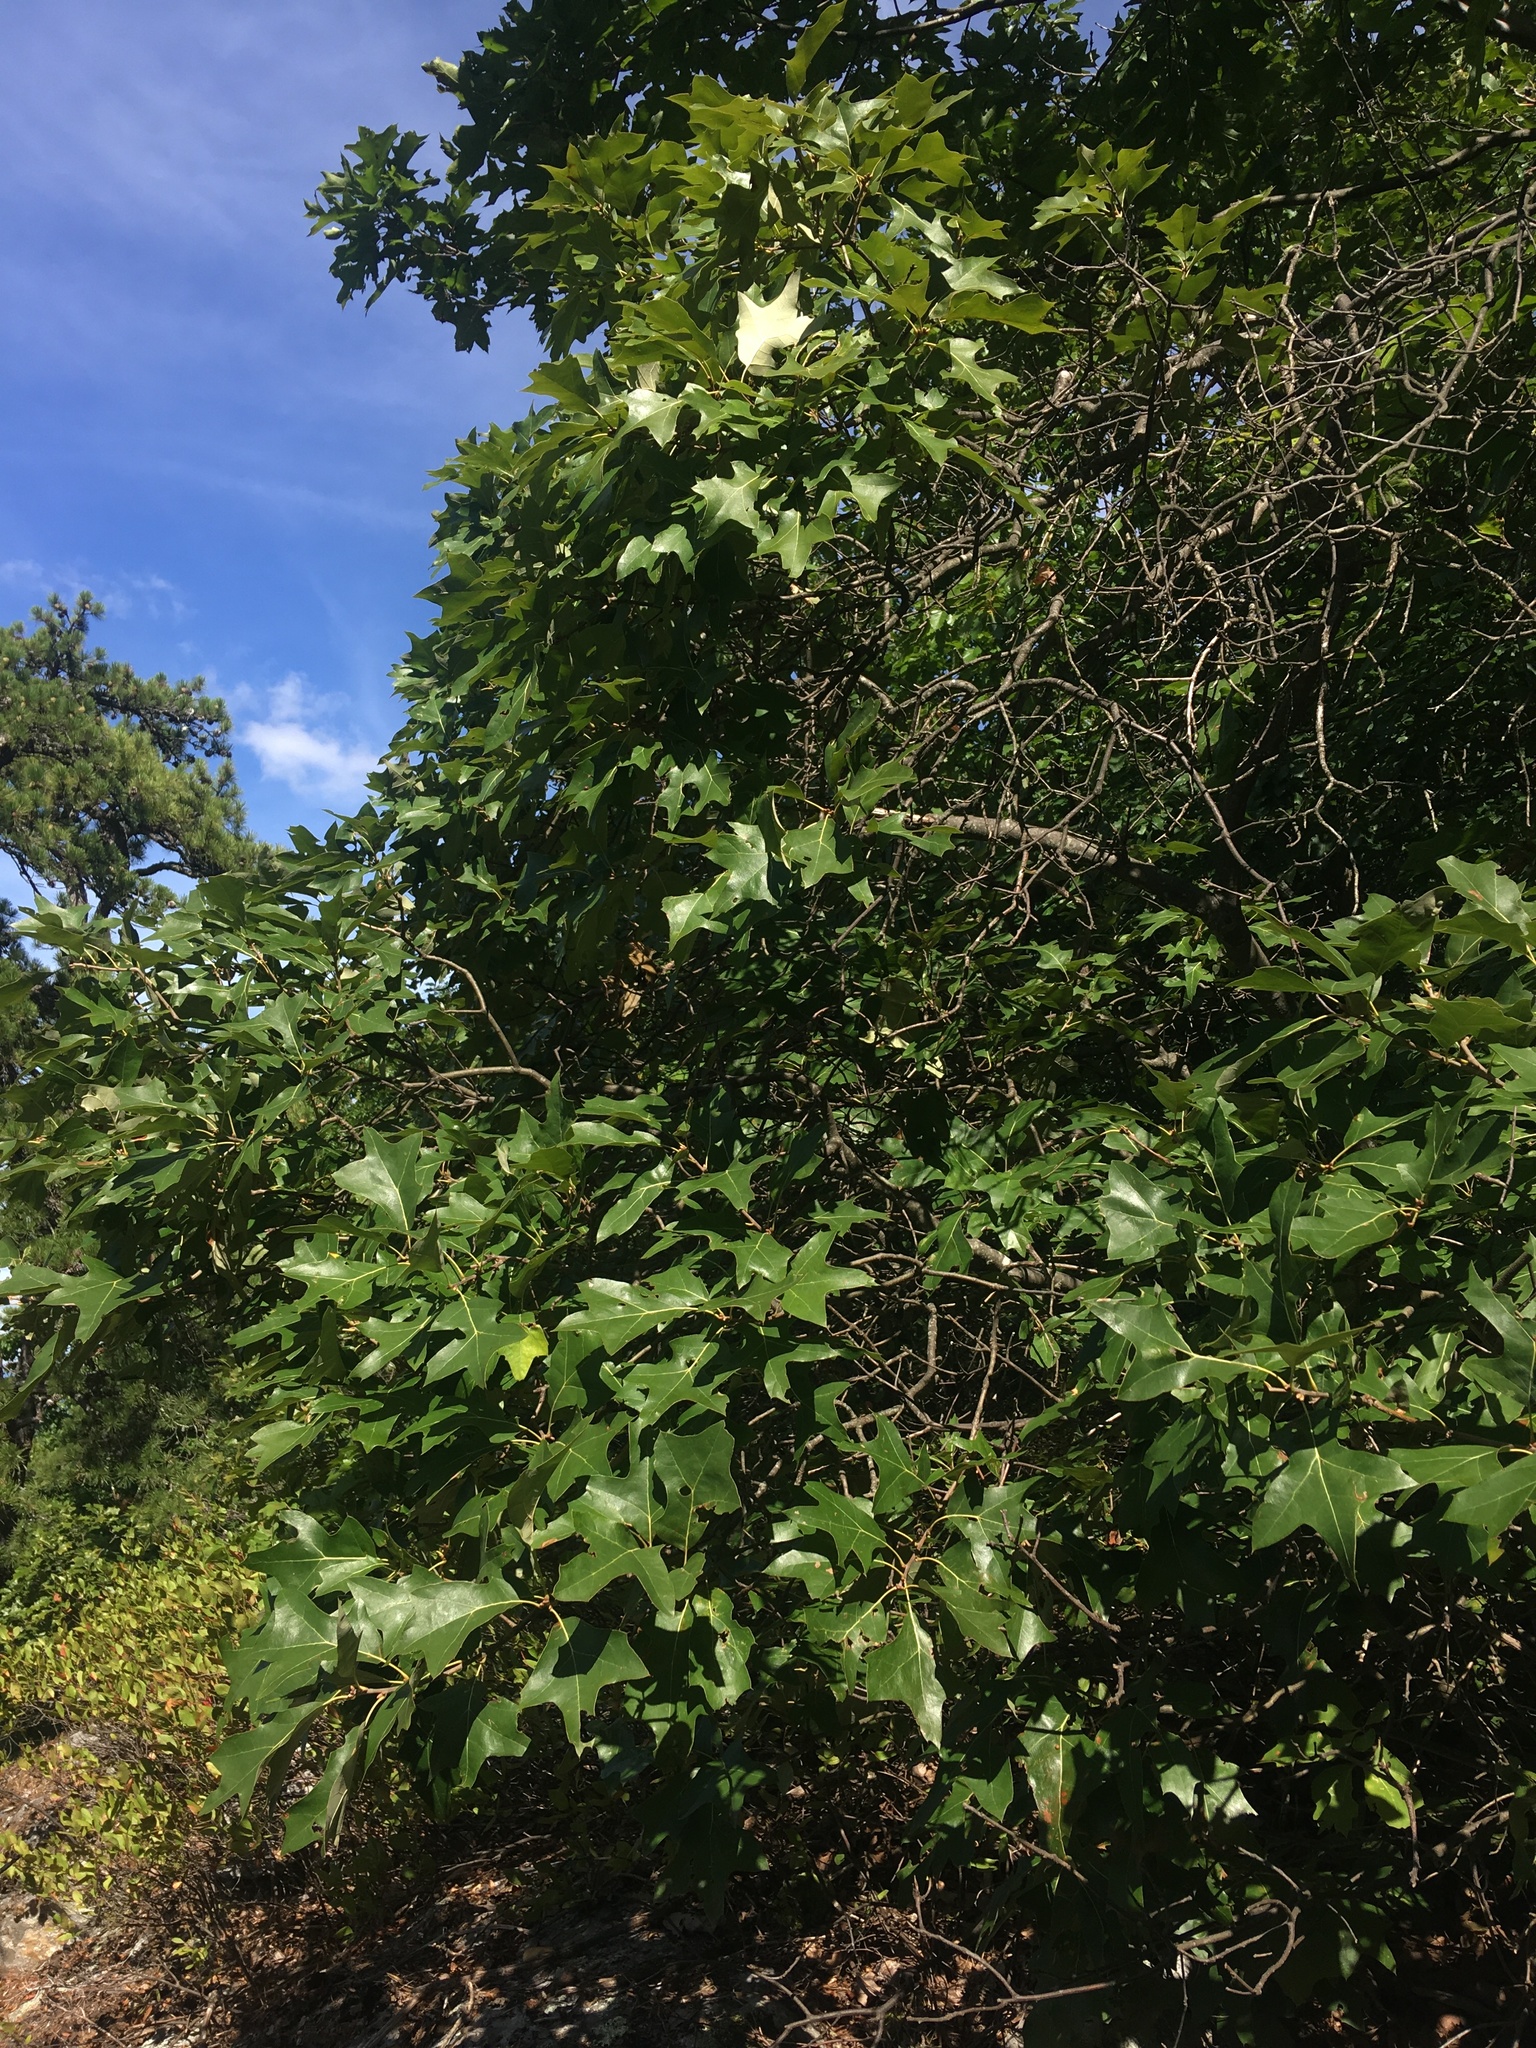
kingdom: Plantae
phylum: Tracheophyta
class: Magnoliopsida
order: Fagales
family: Fagaceae
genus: Quercus
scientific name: Quercus ilicifolia
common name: Bear oak
